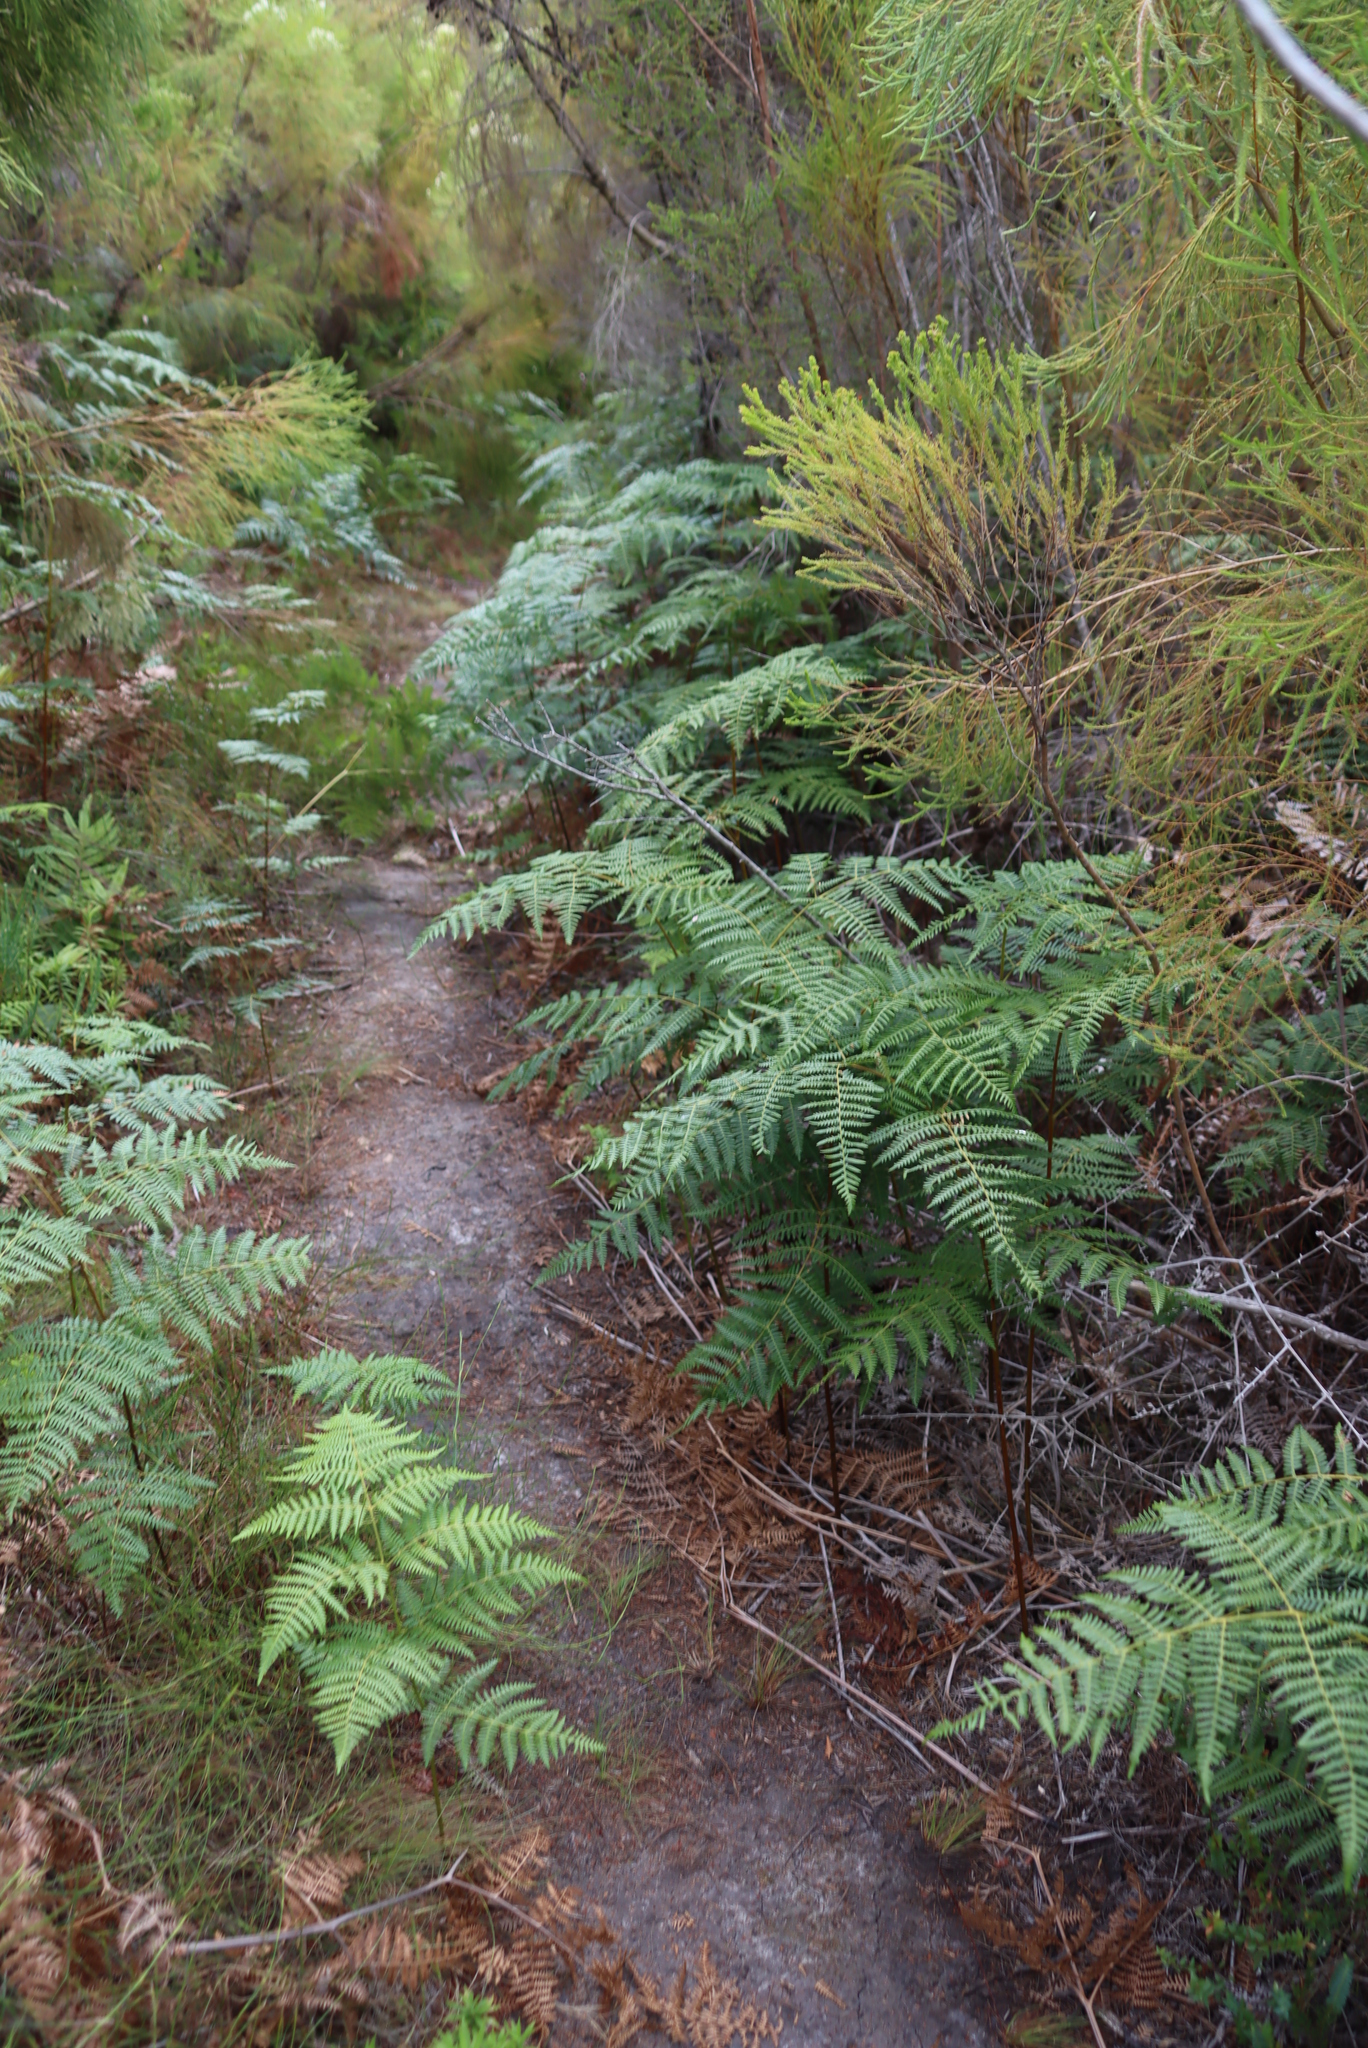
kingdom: Plantae
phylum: Tracheophyta
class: Polypodiopsida
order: Polypodiales
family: Dennstaedtiaceae
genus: Pteridium
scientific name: Pteridium aquilinum
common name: Bracken
